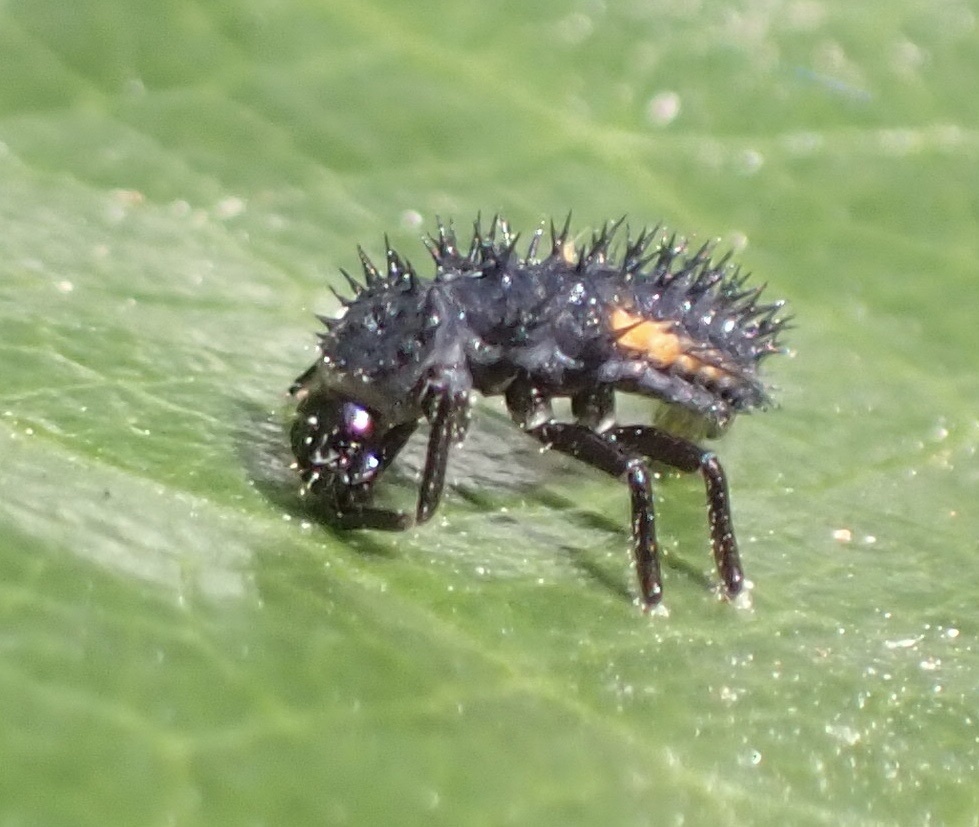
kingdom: Animalia
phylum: Arthropoda
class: Insecta
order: Coleoptera
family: Coccinellidae
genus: Harmonia
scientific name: Harmonia axyridis
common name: Harlequin ladybird
